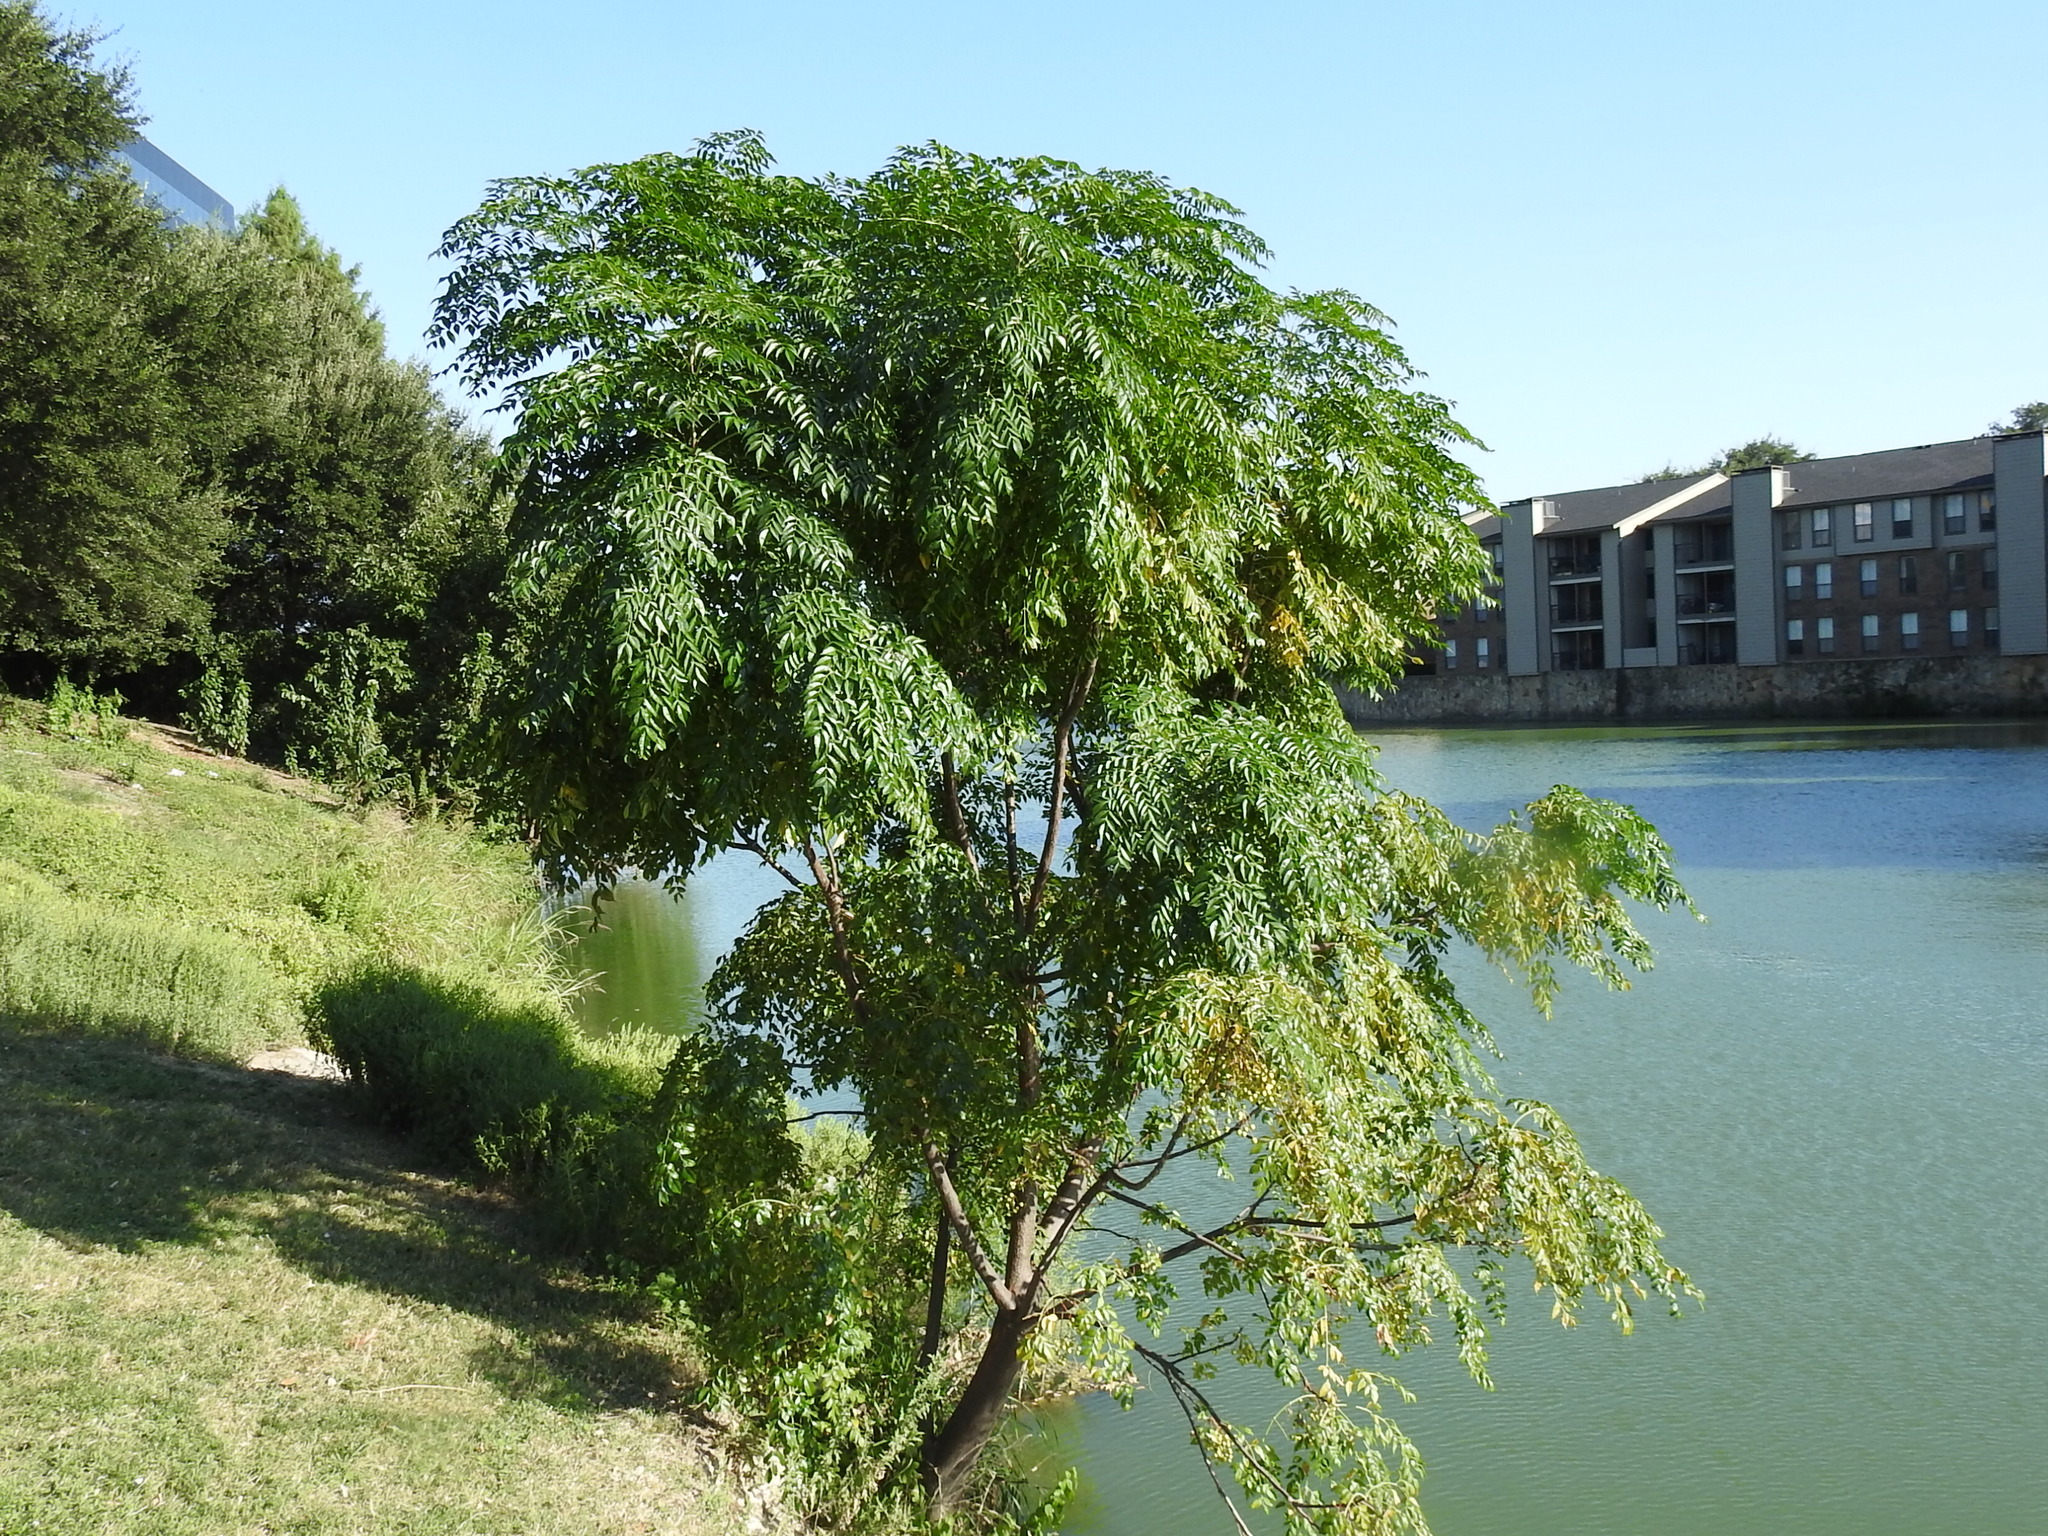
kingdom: Plantae
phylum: Tracheophyta
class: Magnoliopsida
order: Sapindales
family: Meliaceae
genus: Melia
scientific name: Melia azedarach
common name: Chinaberrytree
